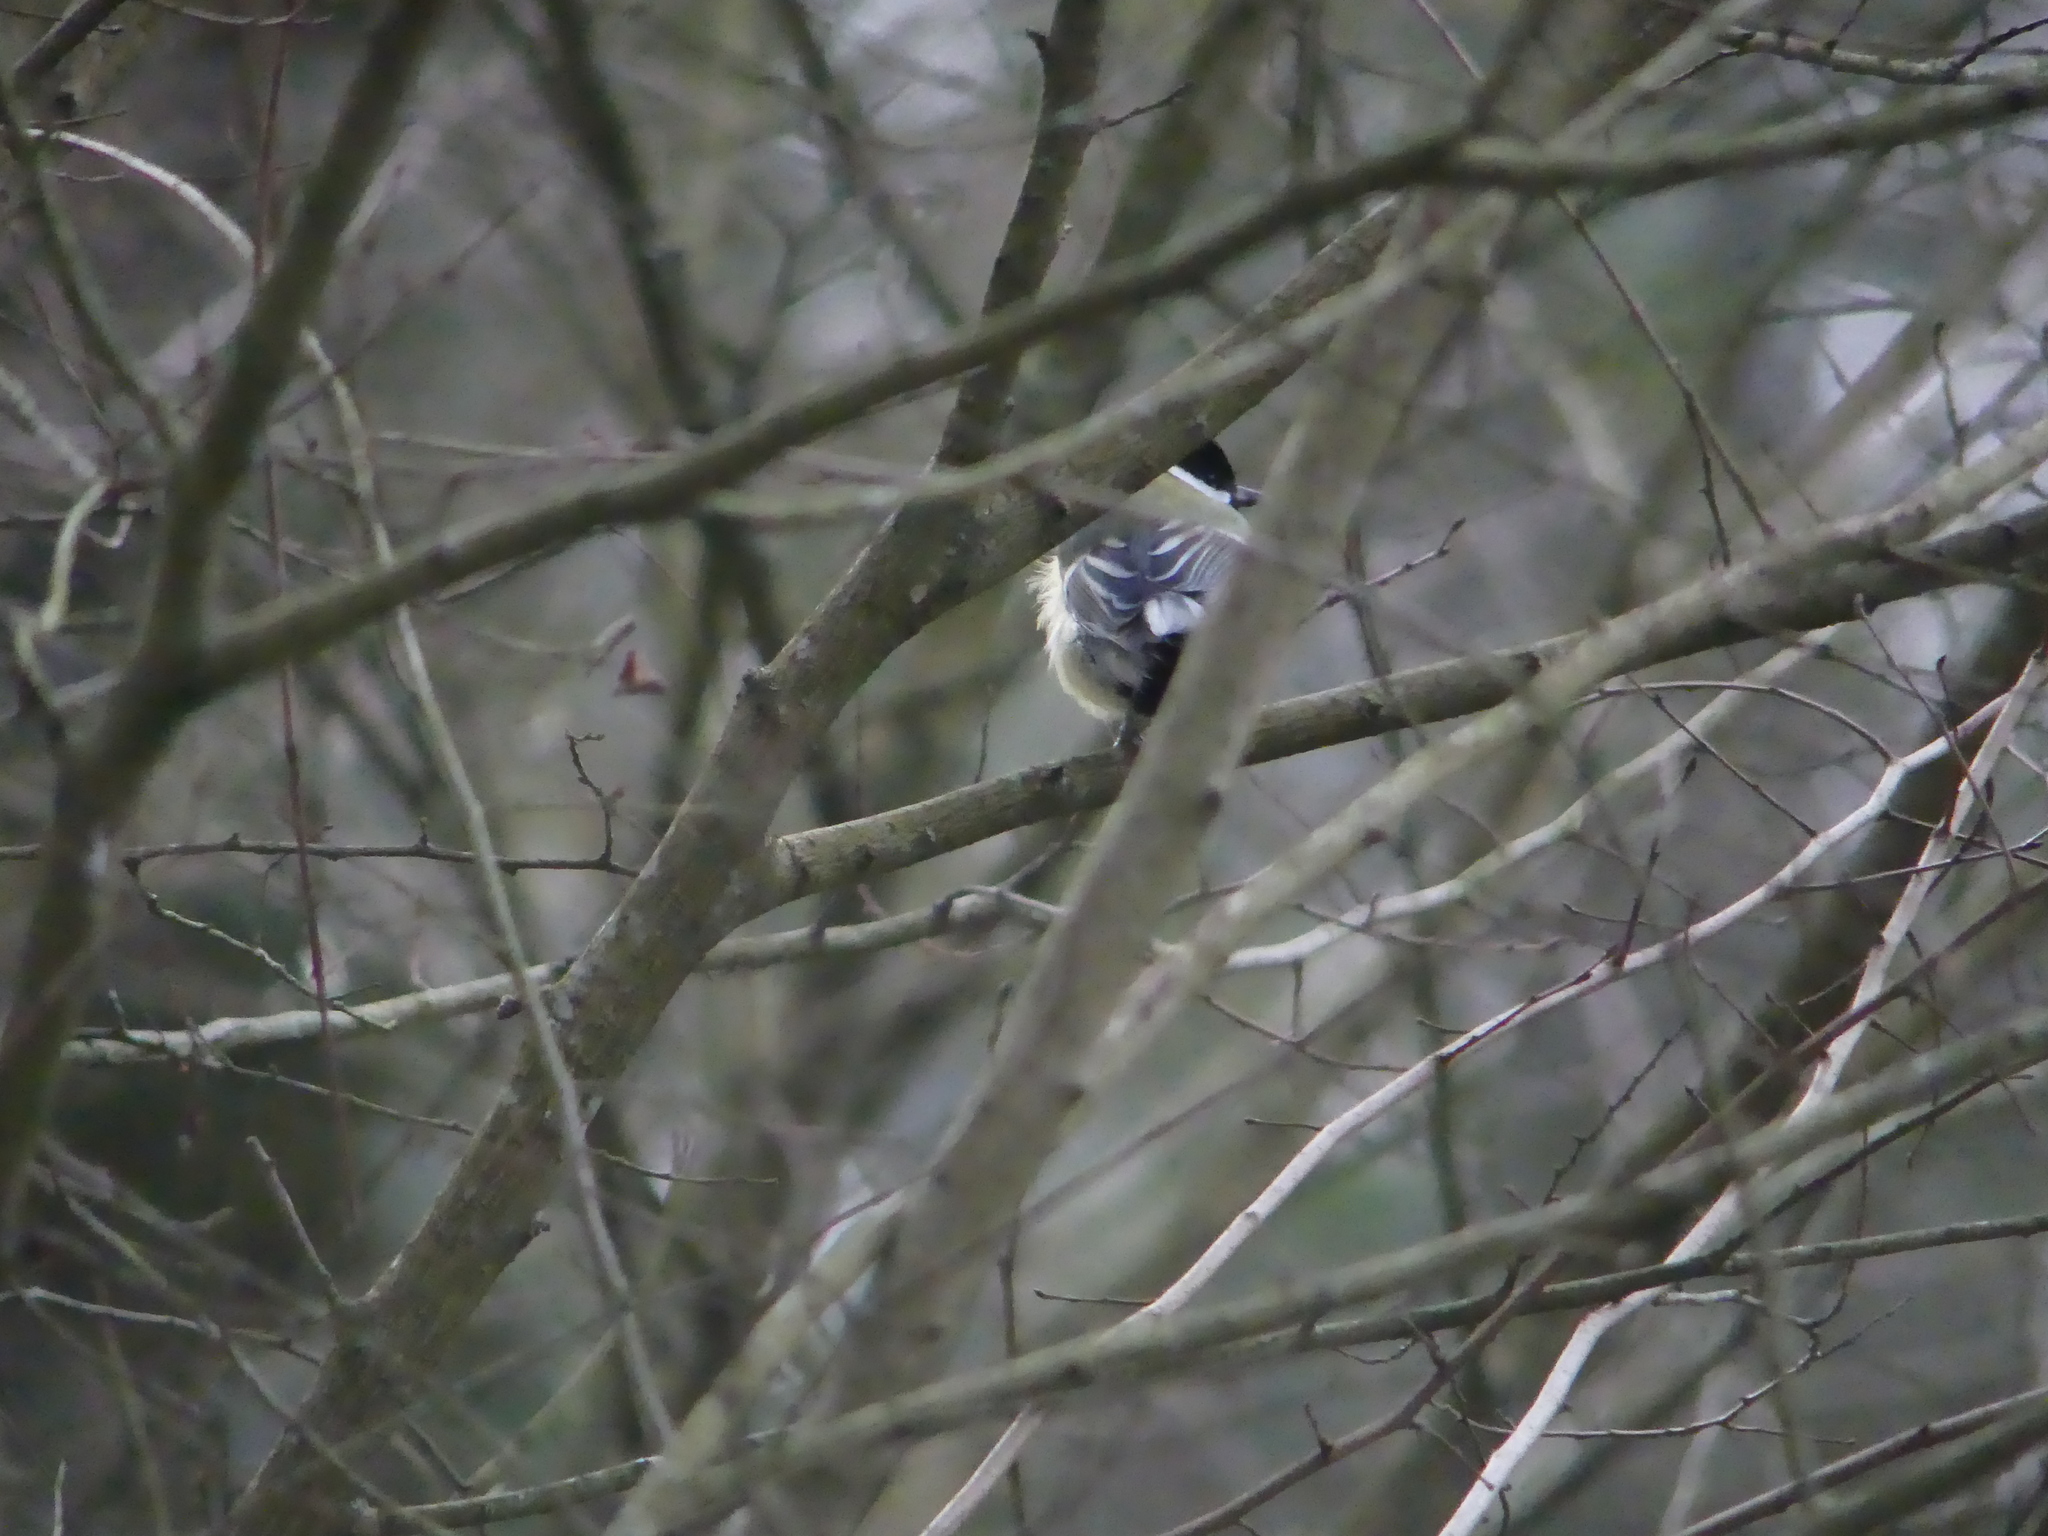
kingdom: Animalia
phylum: Chordata
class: Aves
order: Passeriformes
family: Paridae
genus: Parus
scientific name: Parus major
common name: Great tit
